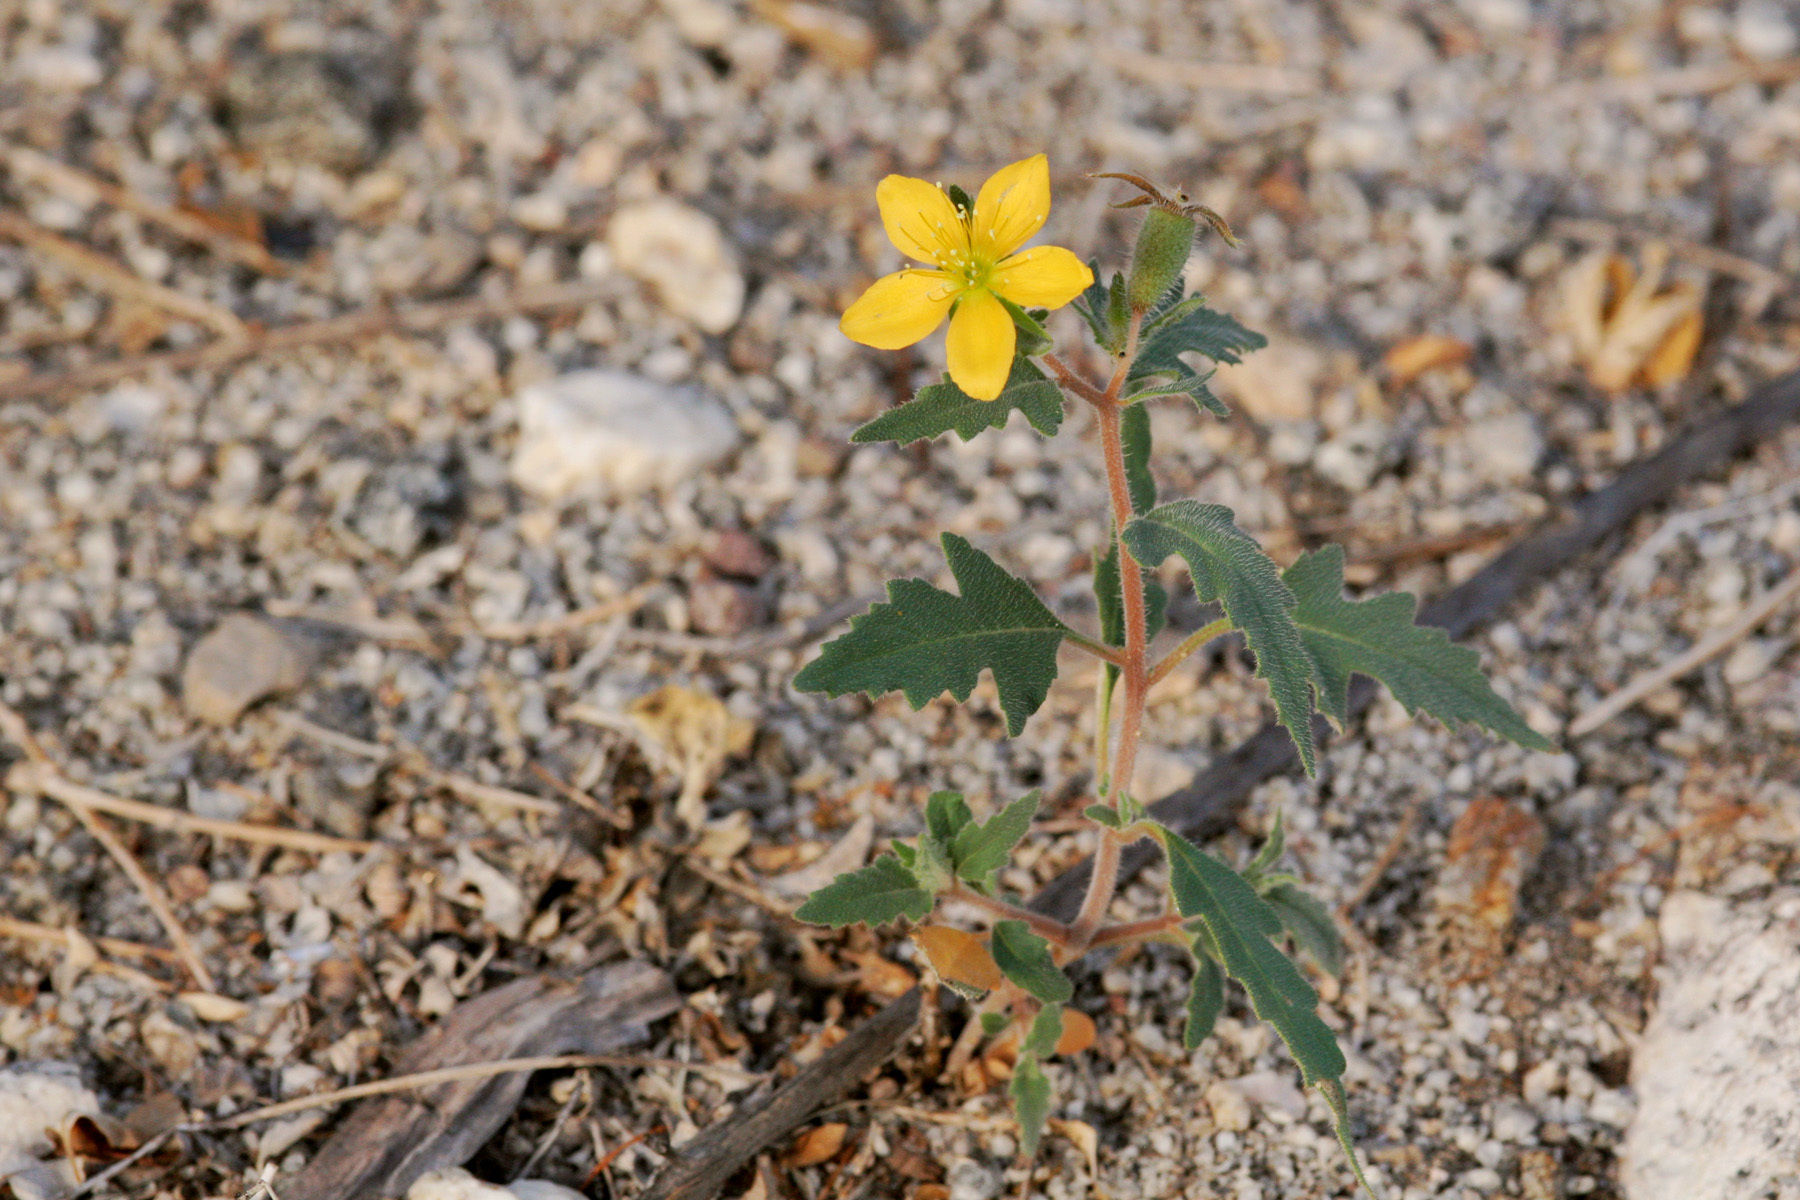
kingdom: Plantae
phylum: Tracheophyta
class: Magnoliopsida
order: Cornales
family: Loasaceae
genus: Mentzelia
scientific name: Mentzelia adhaerens
